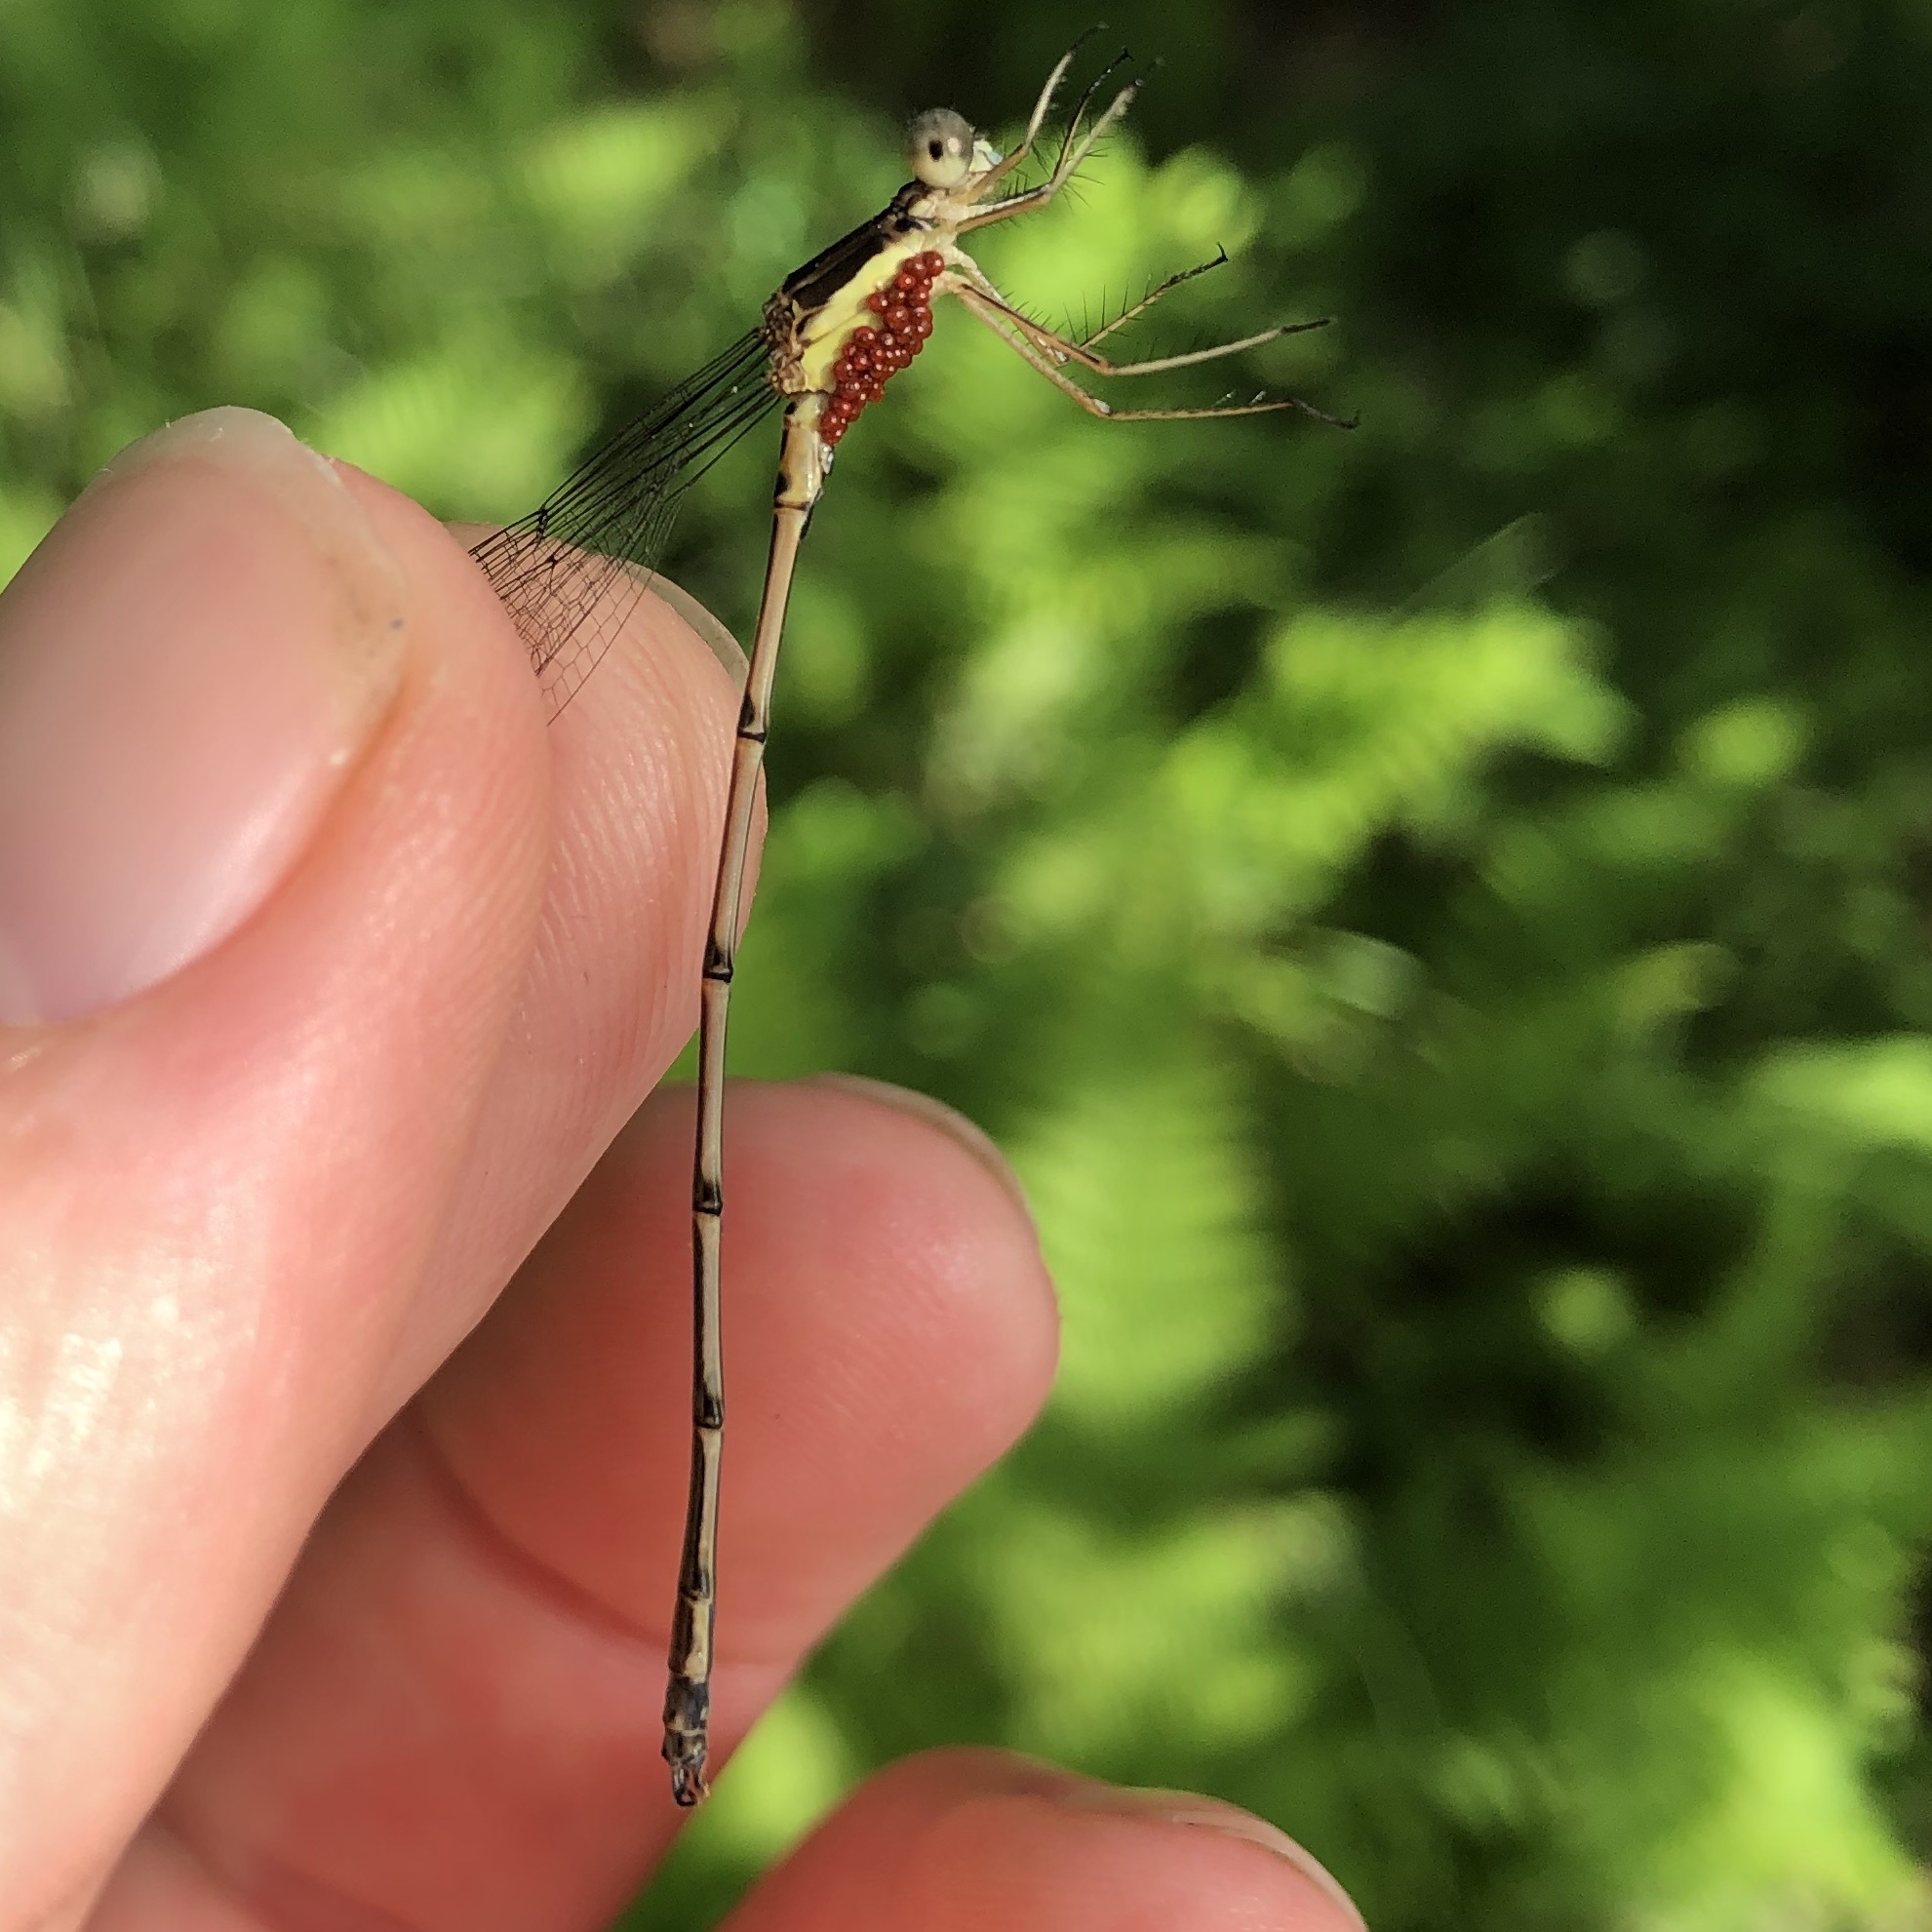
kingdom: Animalia
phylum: Arthropoda
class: Insecta
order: Odonata
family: Lestidae
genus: Lestes
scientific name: Lestes rectangularis
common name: Slender spreadwing
